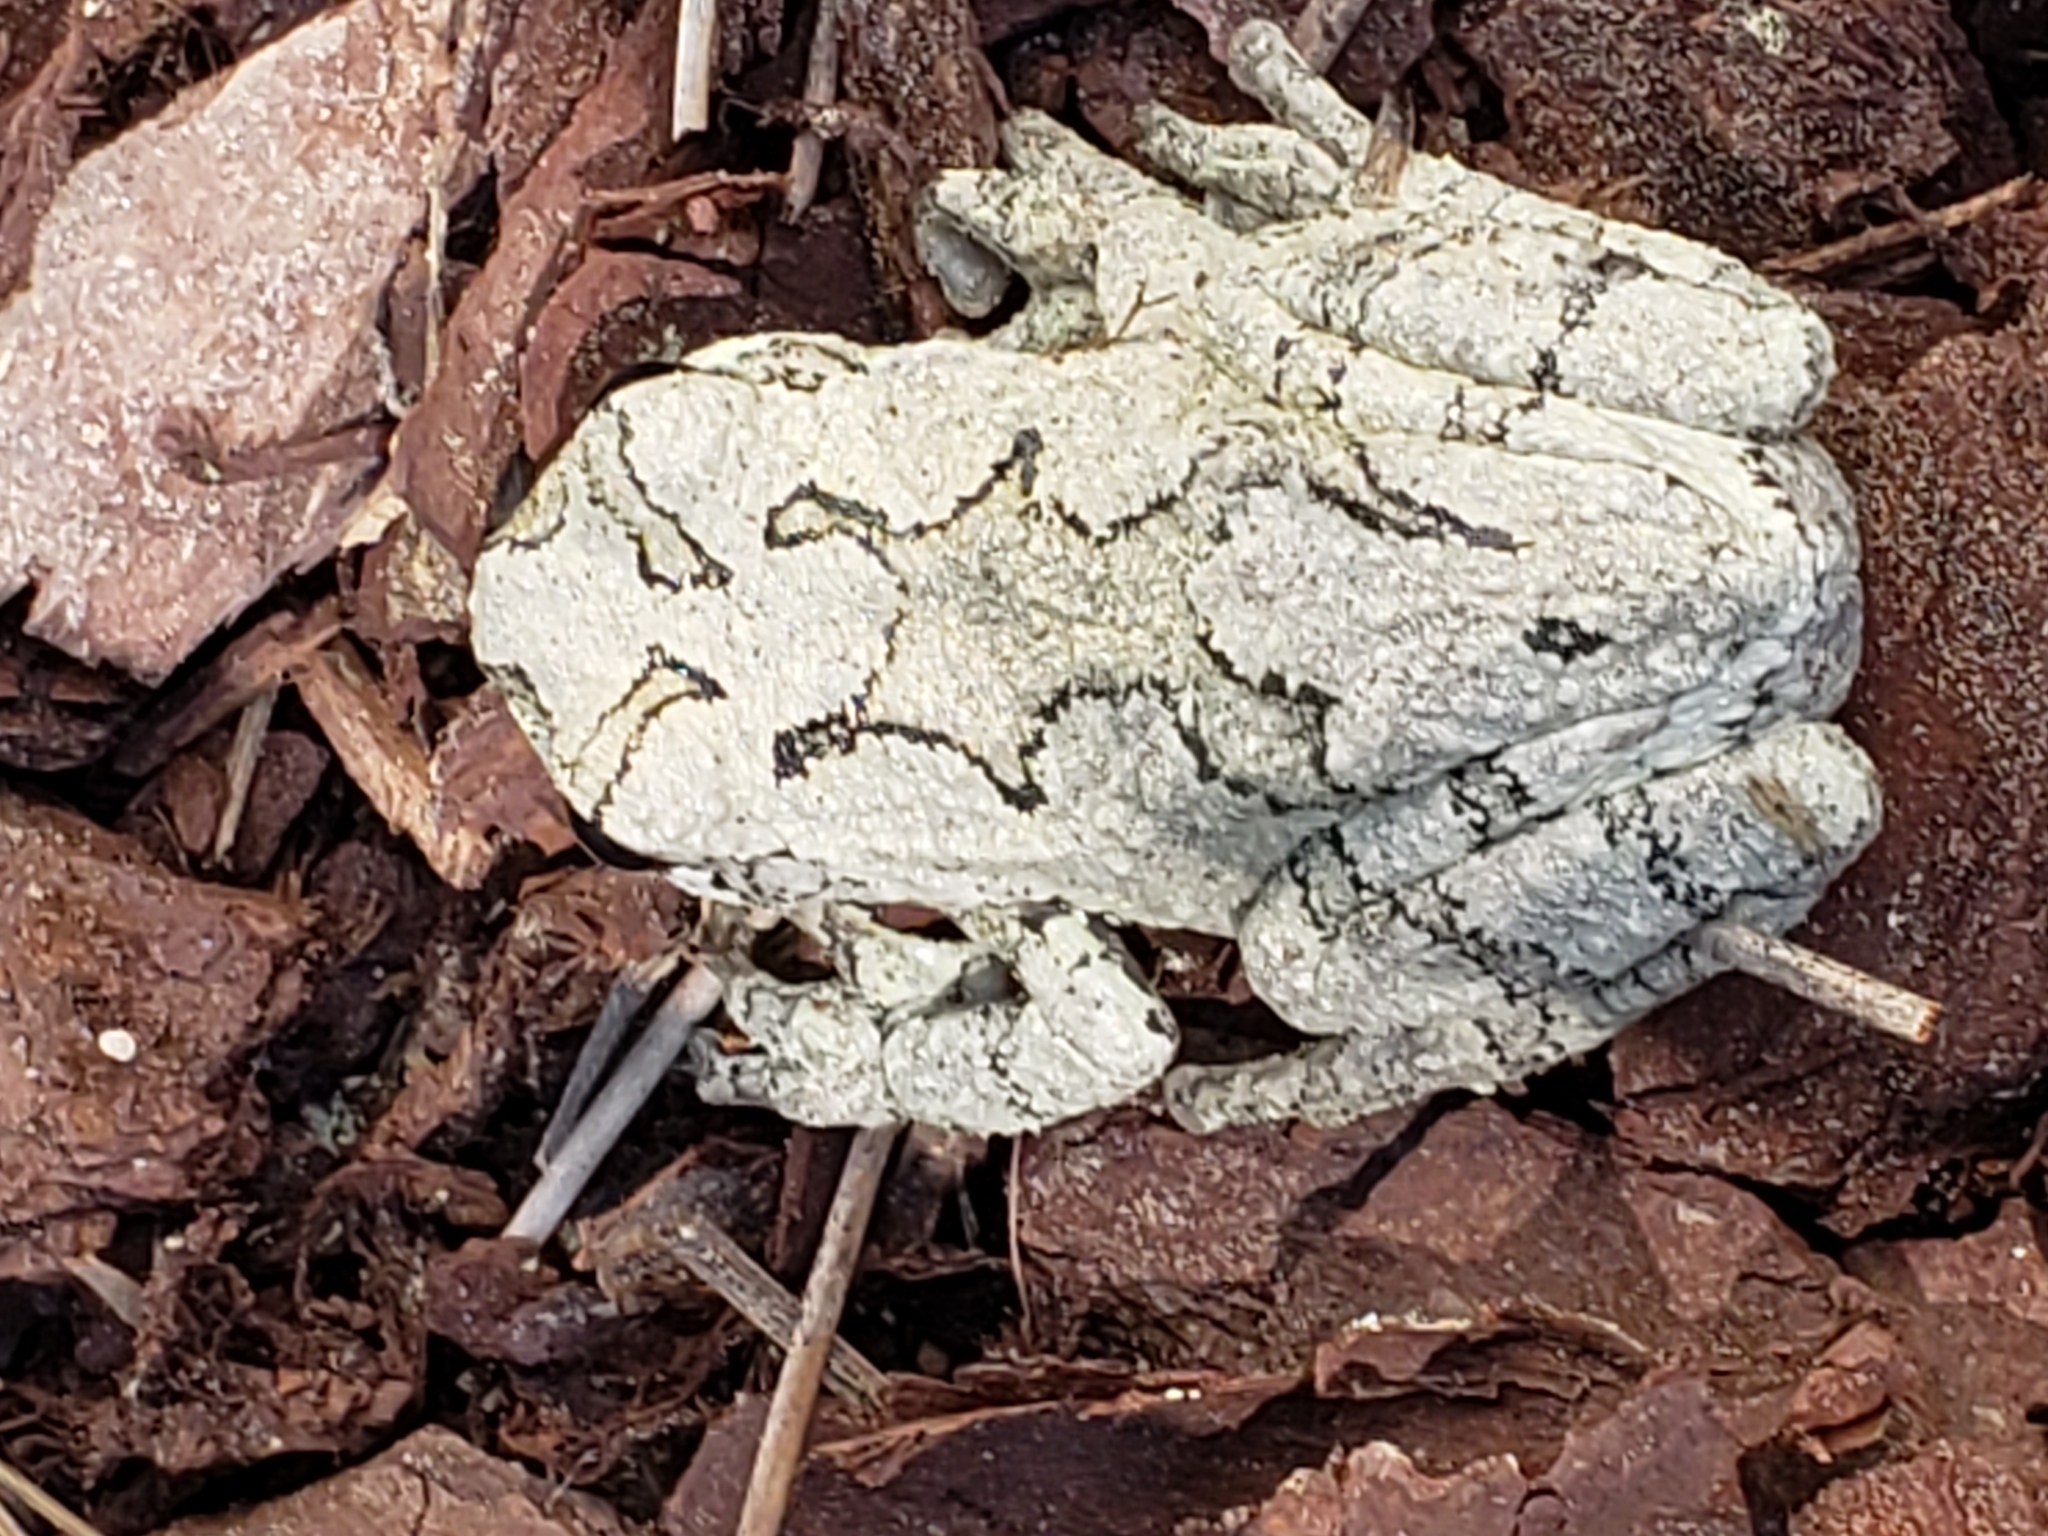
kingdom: Animalia
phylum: Chordata
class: Amphibia
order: Anura
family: Hylidae
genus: Dryophytes
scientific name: Dryophytes chrysoscelis
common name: Cope's gray treefrog
